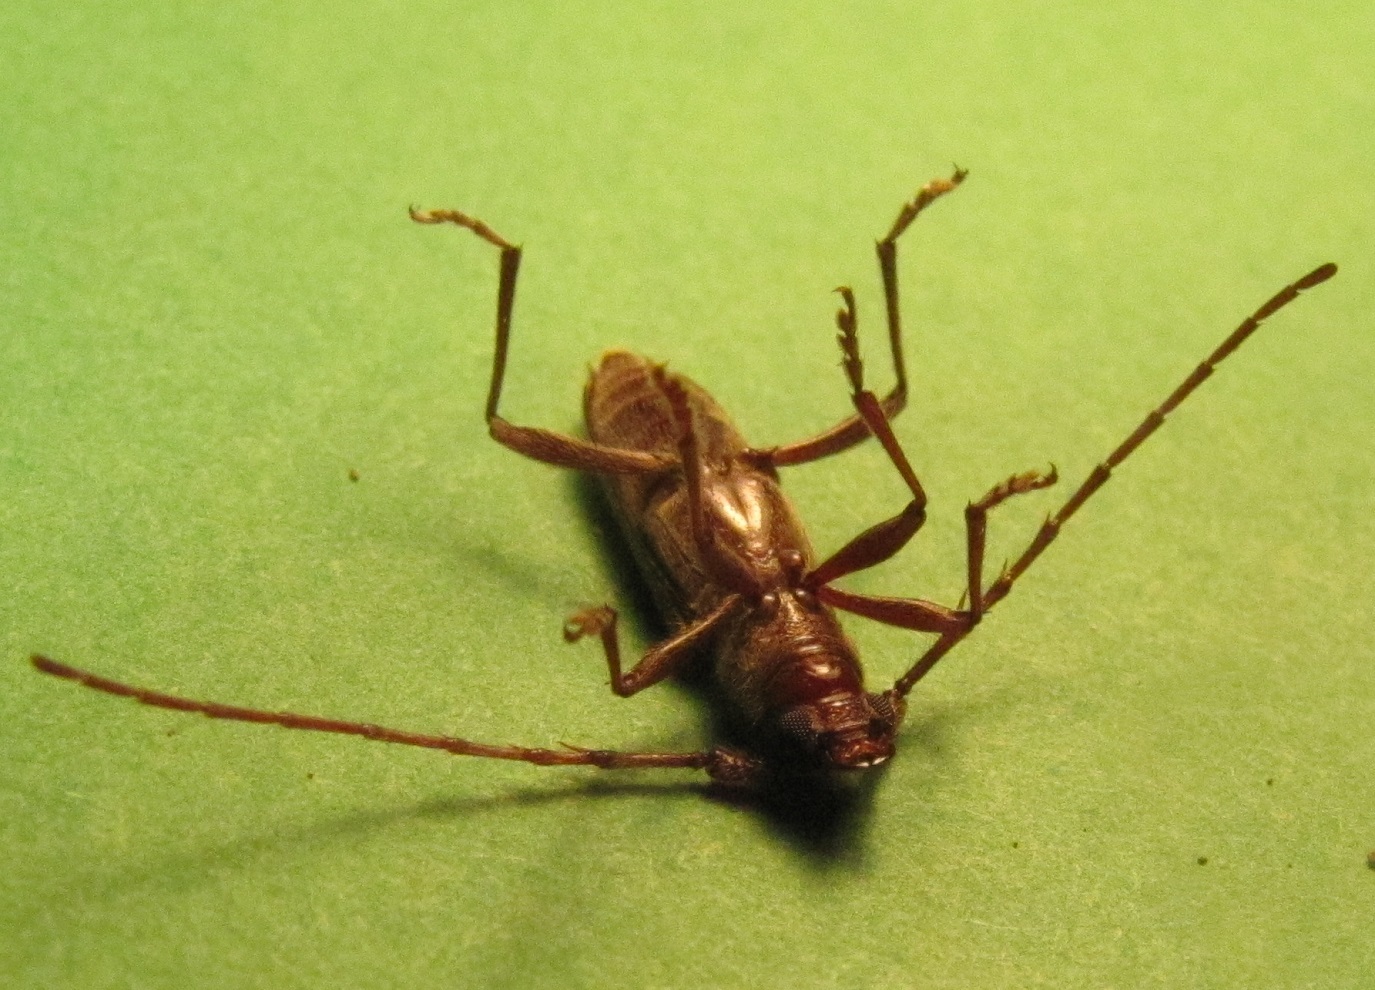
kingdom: Animalia
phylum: Arthropoda
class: Insecta
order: Coleoptera
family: Cerambycidae
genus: Elaphidion
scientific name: Elaphidion mucronatum
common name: Spined oak borer
